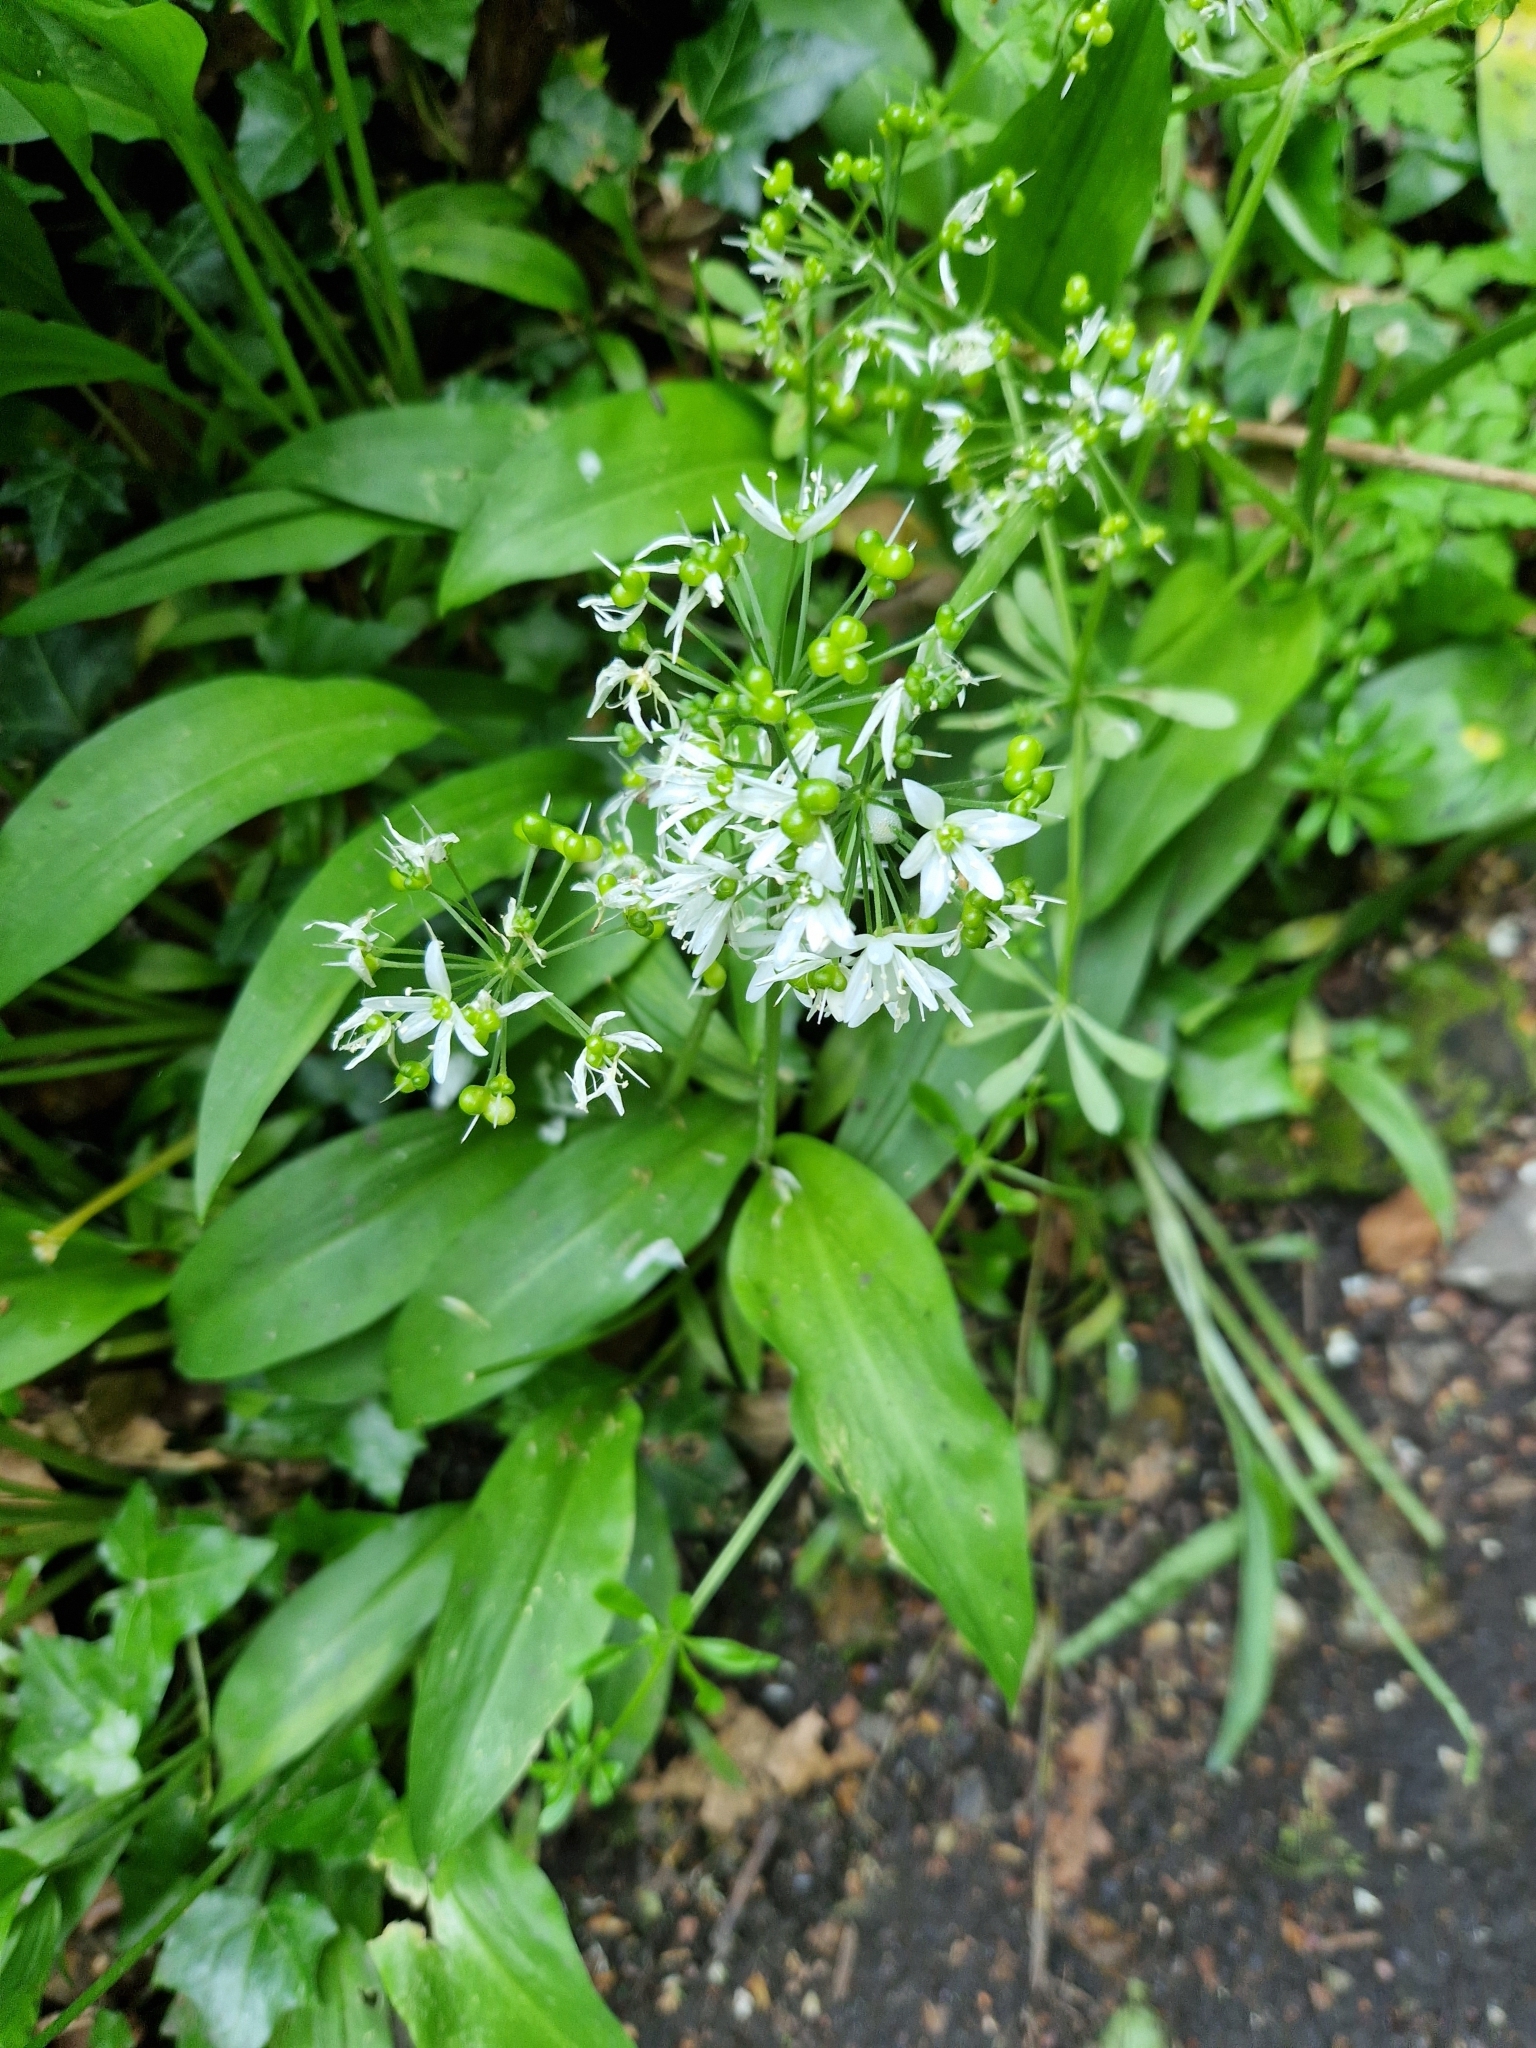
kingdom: Plantae
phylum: Tracheophyta
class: Liliopsida
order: Asparagales
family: Amaryllidaceae
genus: Allium
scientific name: Allium ursinum
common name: Ramsons
